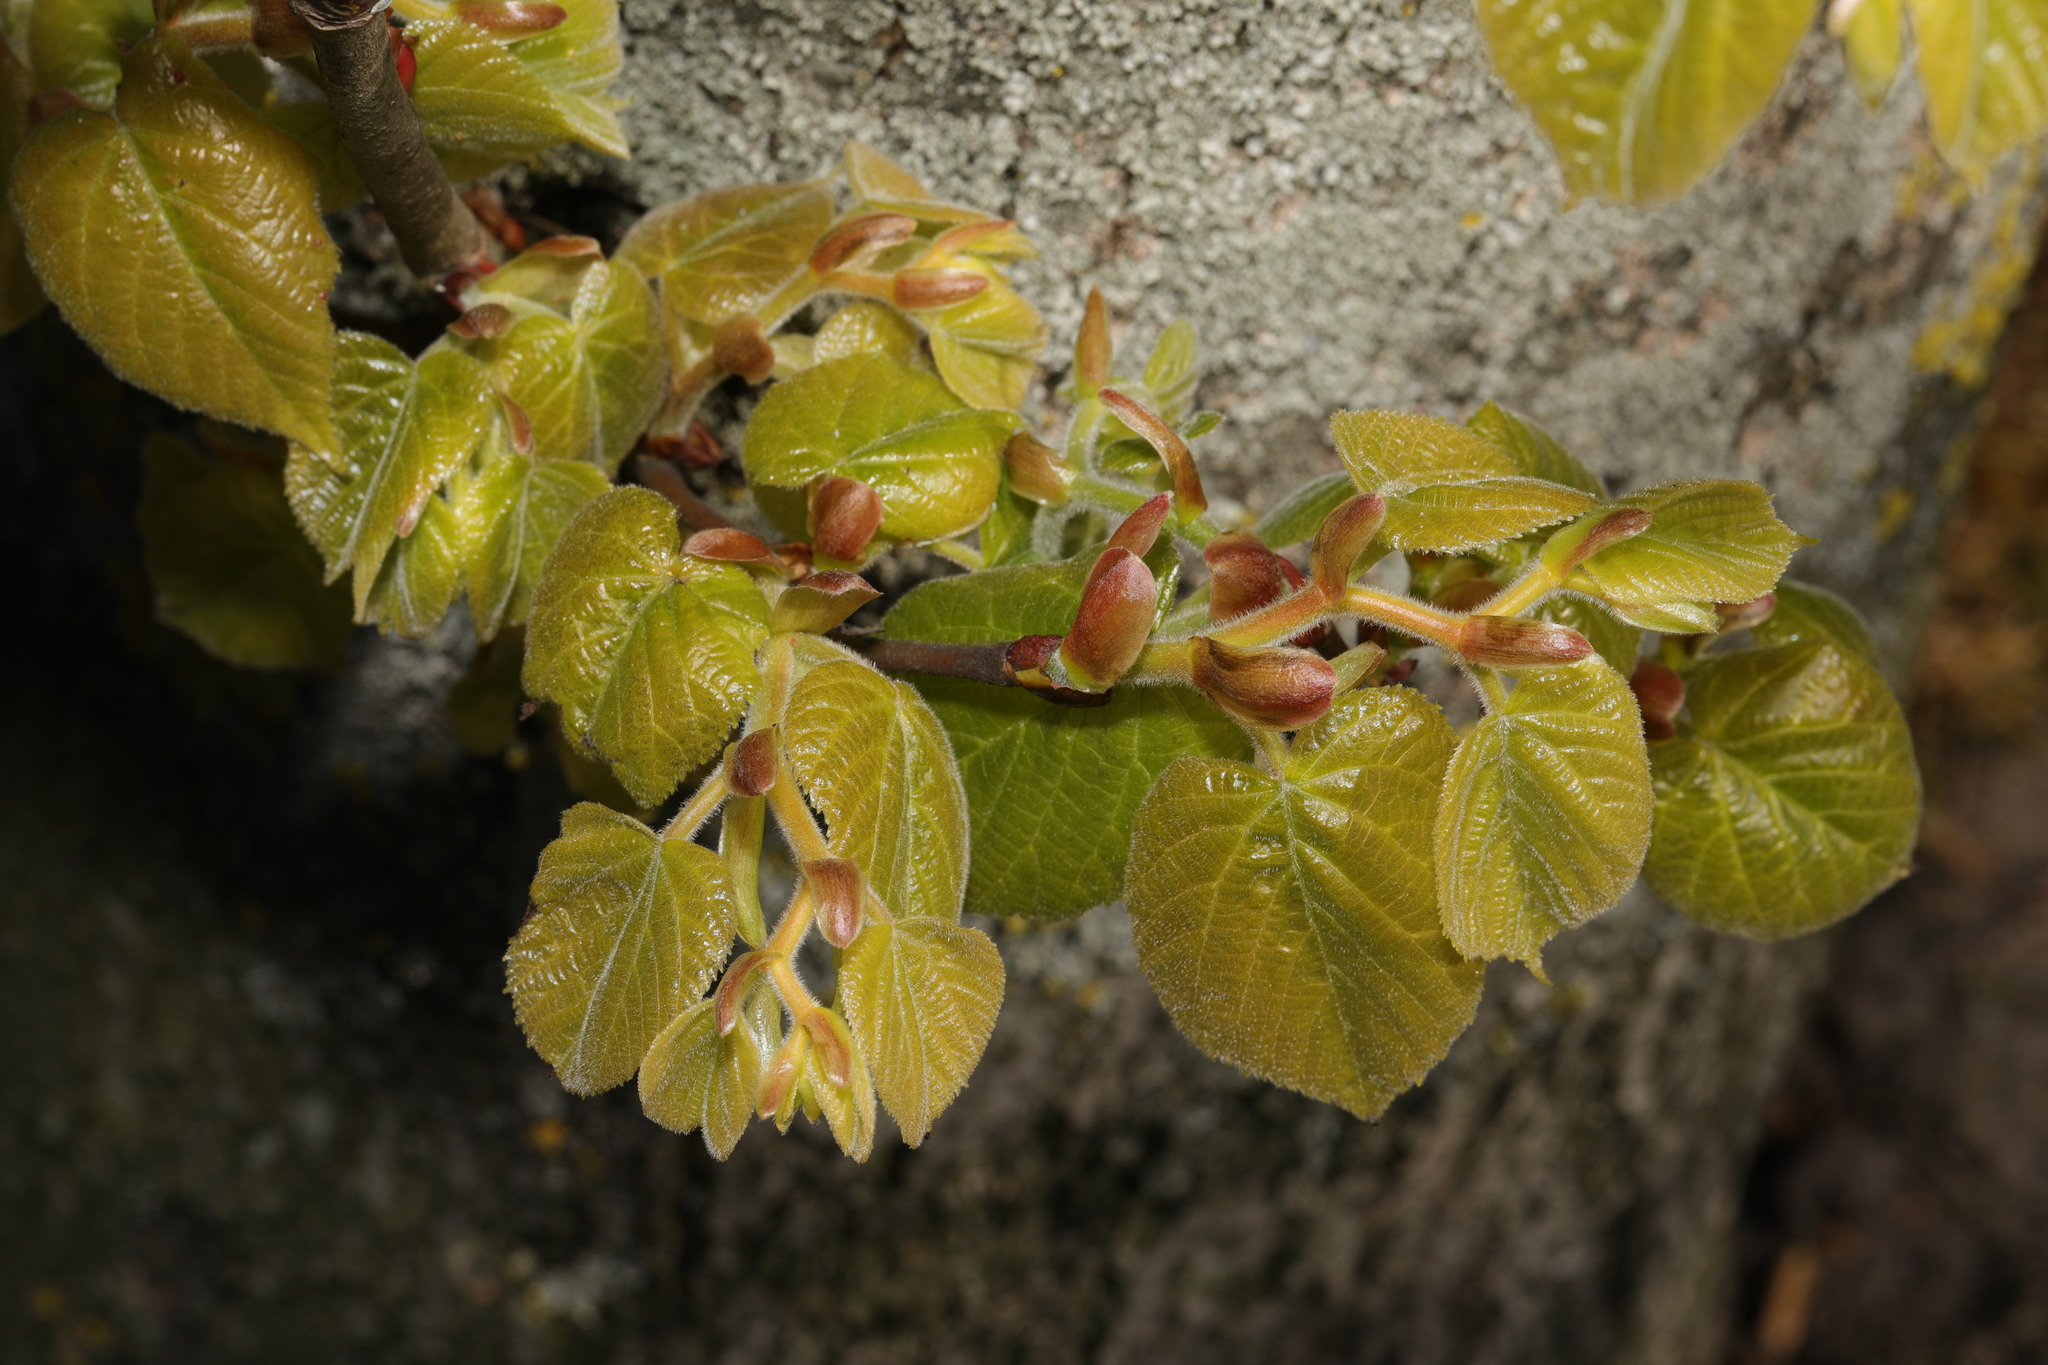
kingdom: Plantae
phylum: Tracheophyta
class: Magnoliopsida
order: Malvales
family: Malvaceae
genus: Tilia
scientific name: Tilia europaea
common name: European linden
